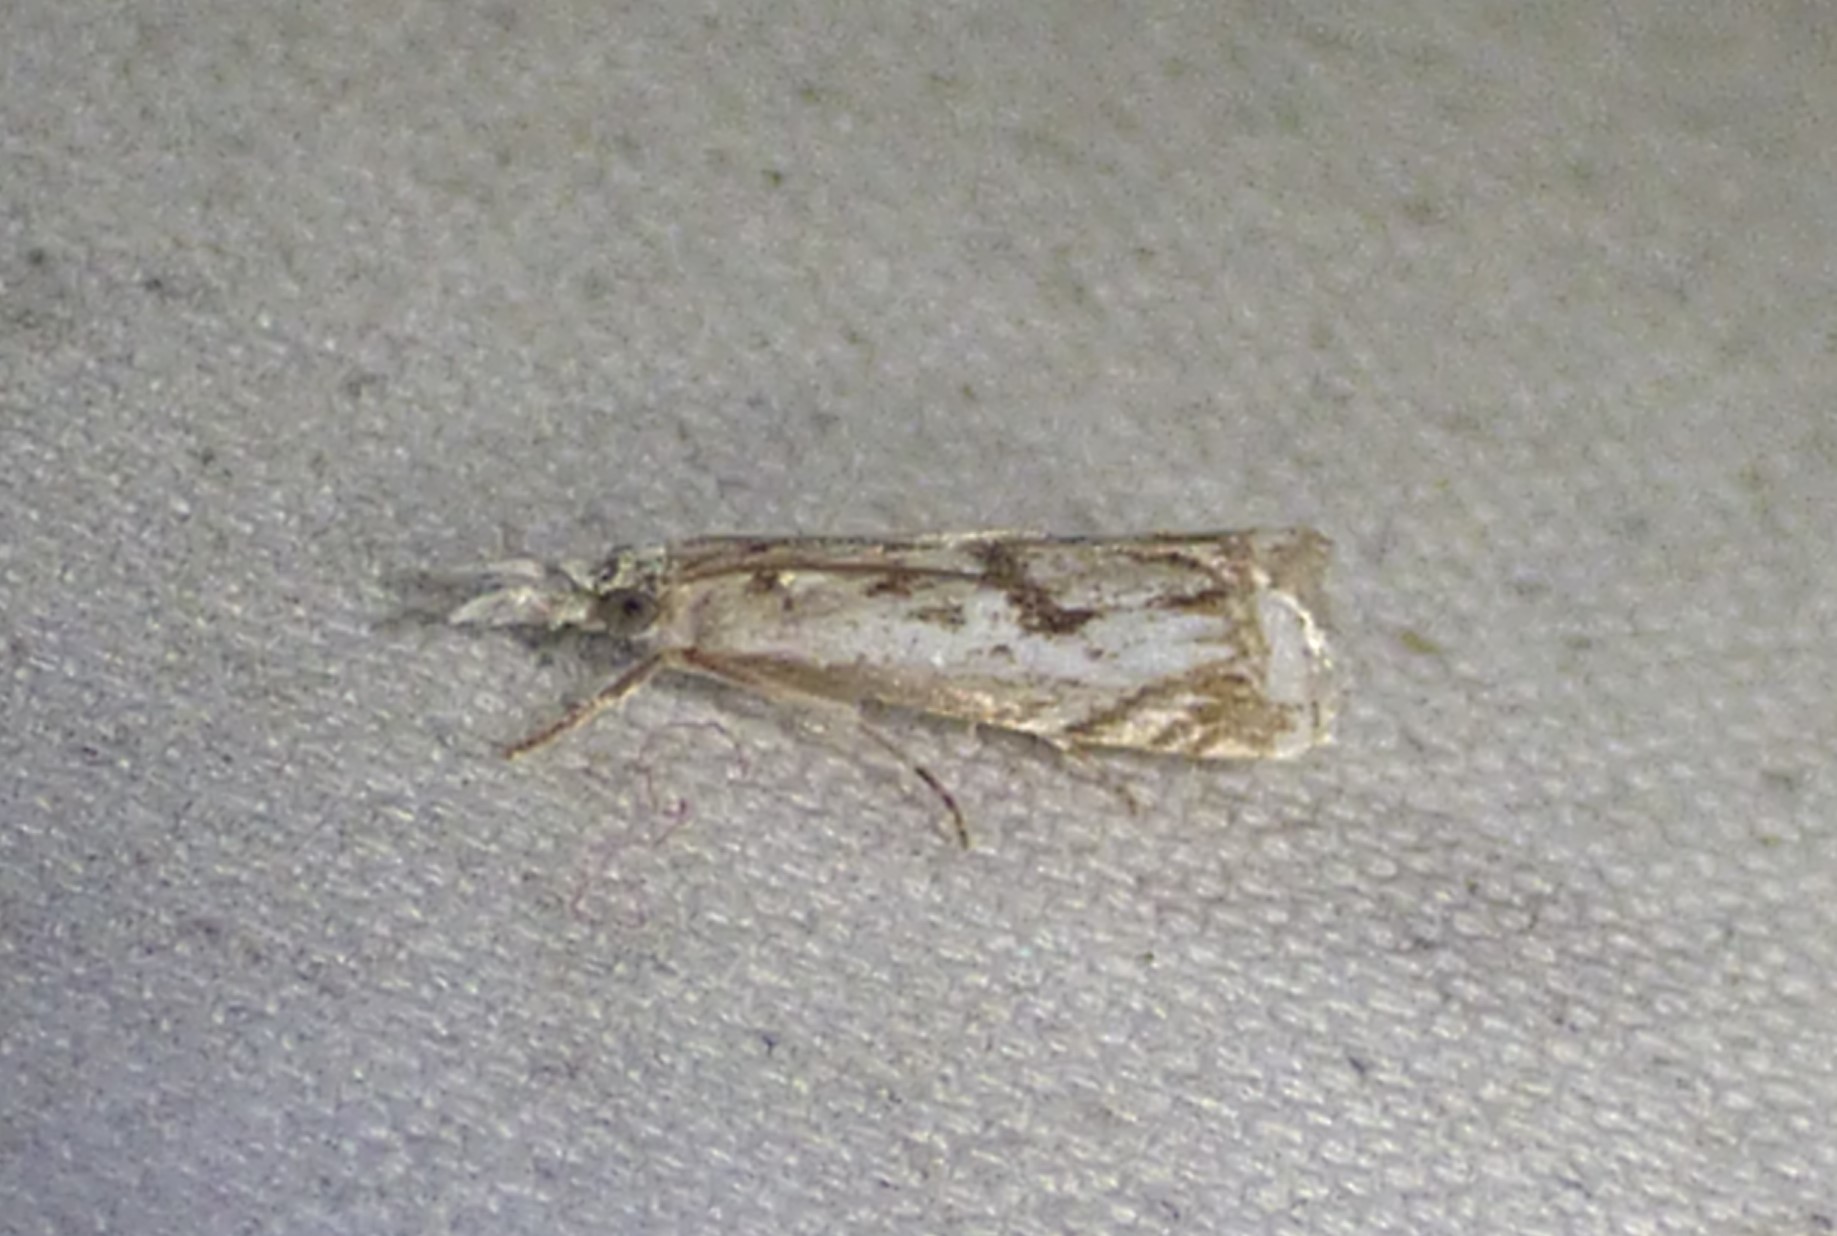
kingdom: Animalia
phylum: Arthropoda
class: Insecta
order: Lepidoptera
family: Crambidae
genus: Microcrambus
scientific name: Microcrambus immunellus
